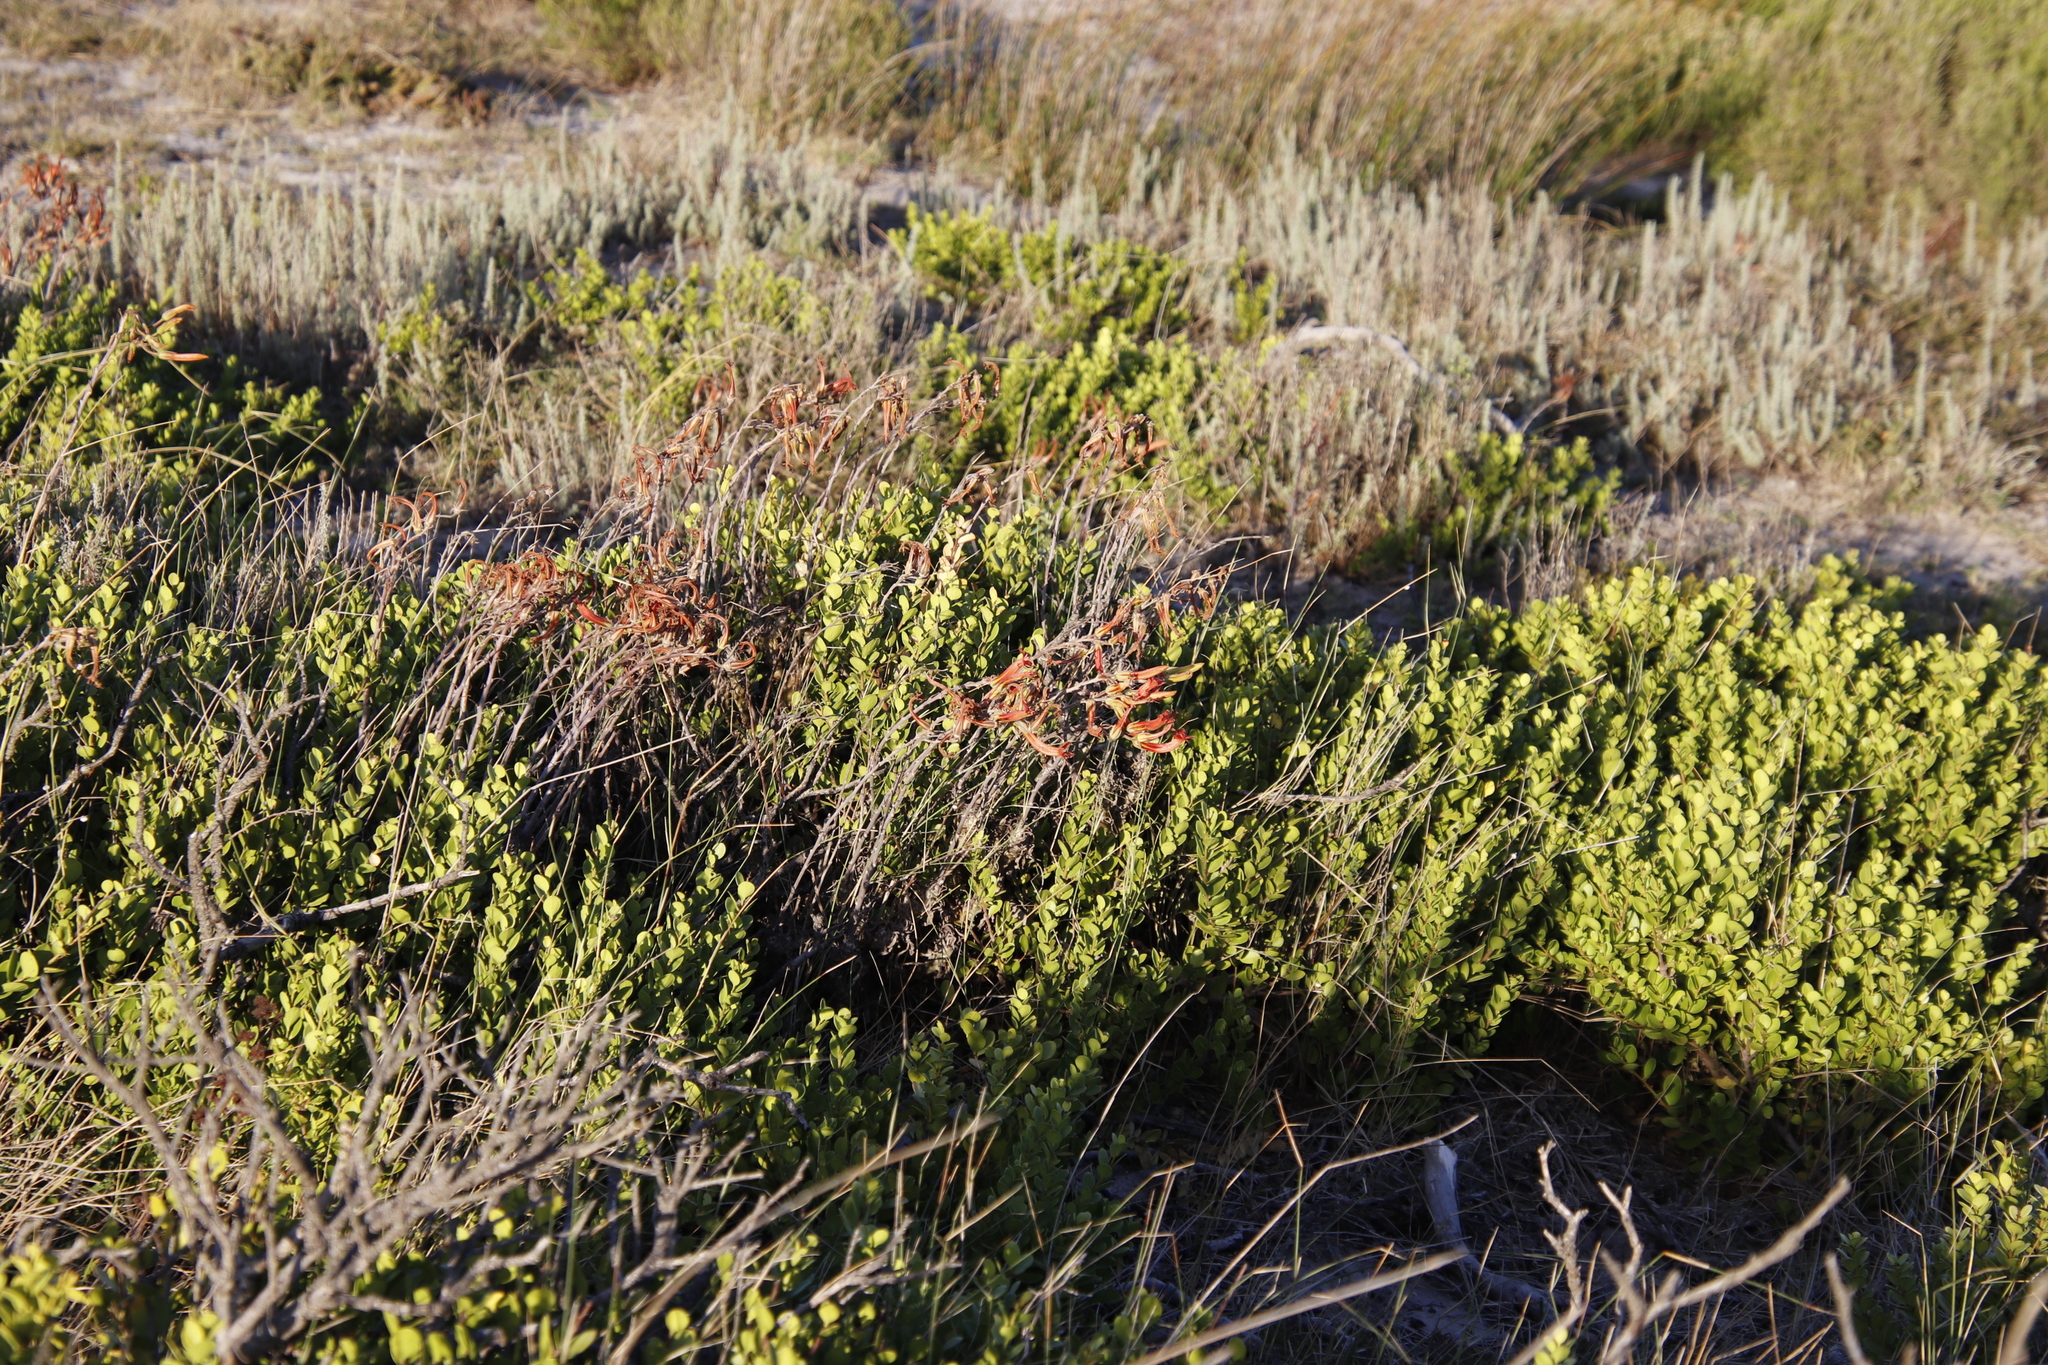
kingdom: Plantae
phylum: Tracheophyta
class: Magnoliopsida
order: Saxifragales
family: Crassulaceae
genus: Tylecodon
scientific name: Tylecodon grandiflorus
